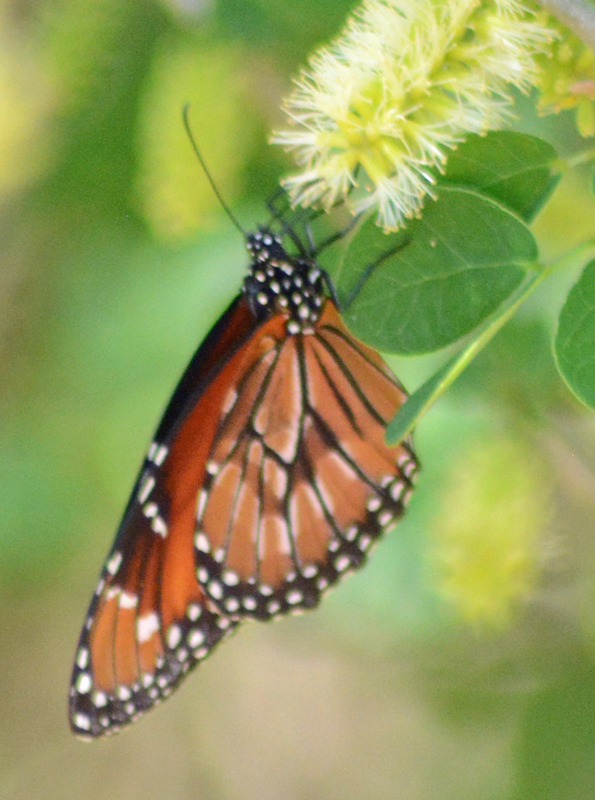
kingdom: Animalia
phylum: Arthropoda
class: Insecta
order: Lepidoptera
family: Nymphalidae
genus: Danaus
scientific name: Danaus eresimus
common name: Soldier
